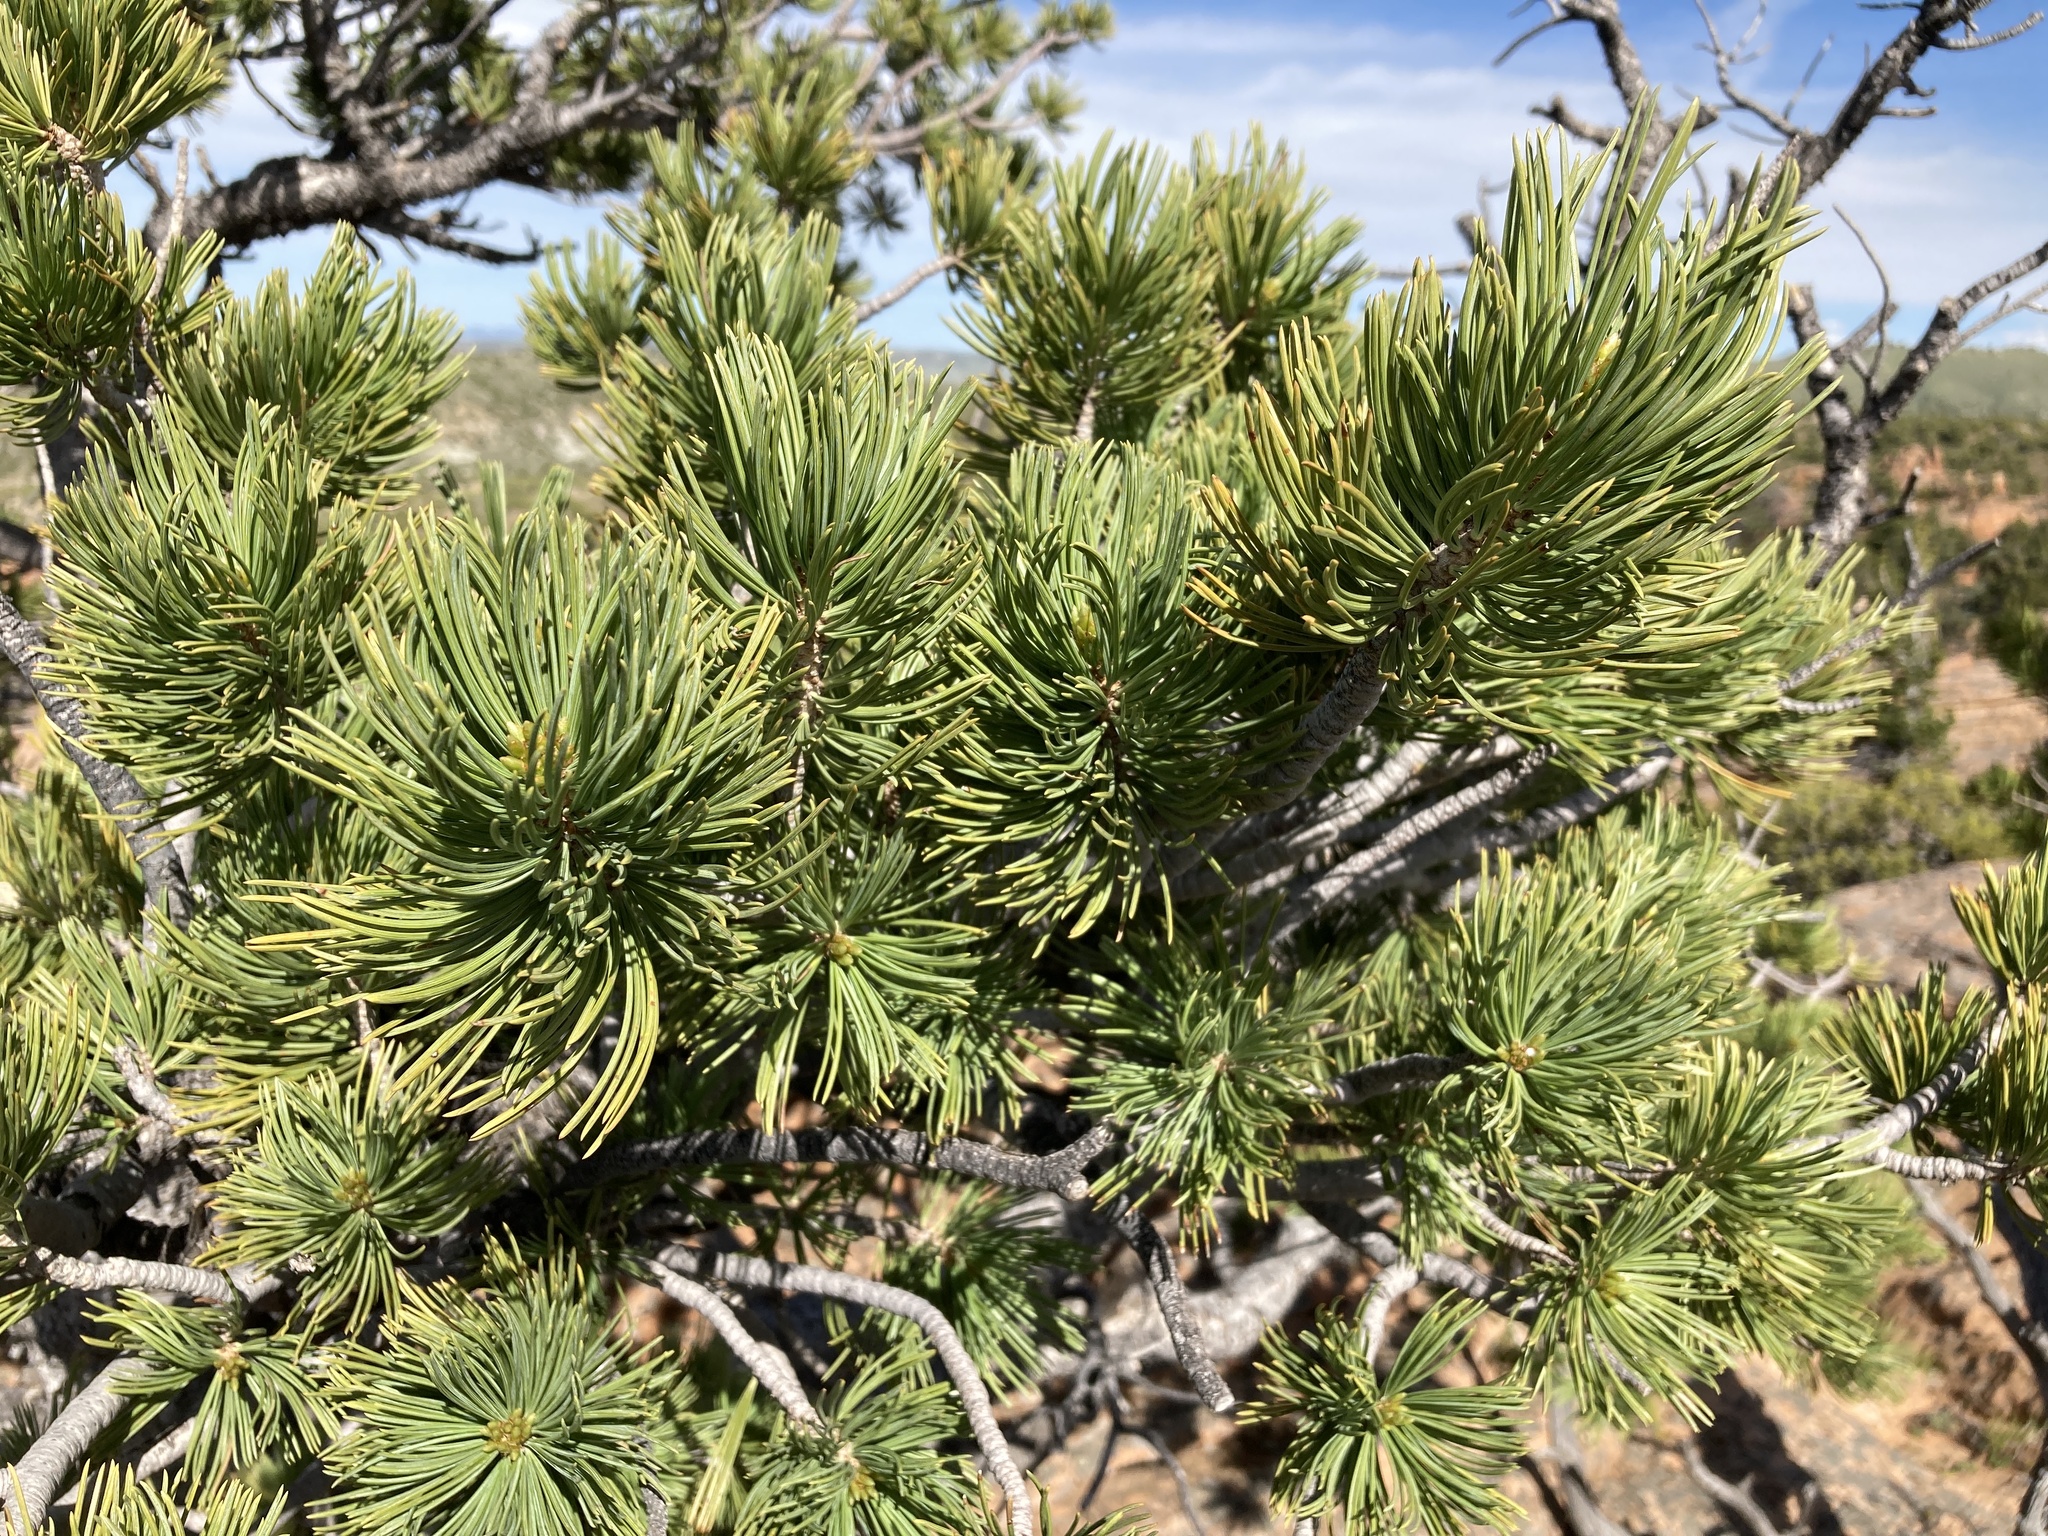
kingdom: Plantae
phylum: Tracheophyta
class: Pinopsida
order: Pinales
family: Pinaceae
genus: Pinus
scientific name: Pinus flexilis
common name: Limber pine
